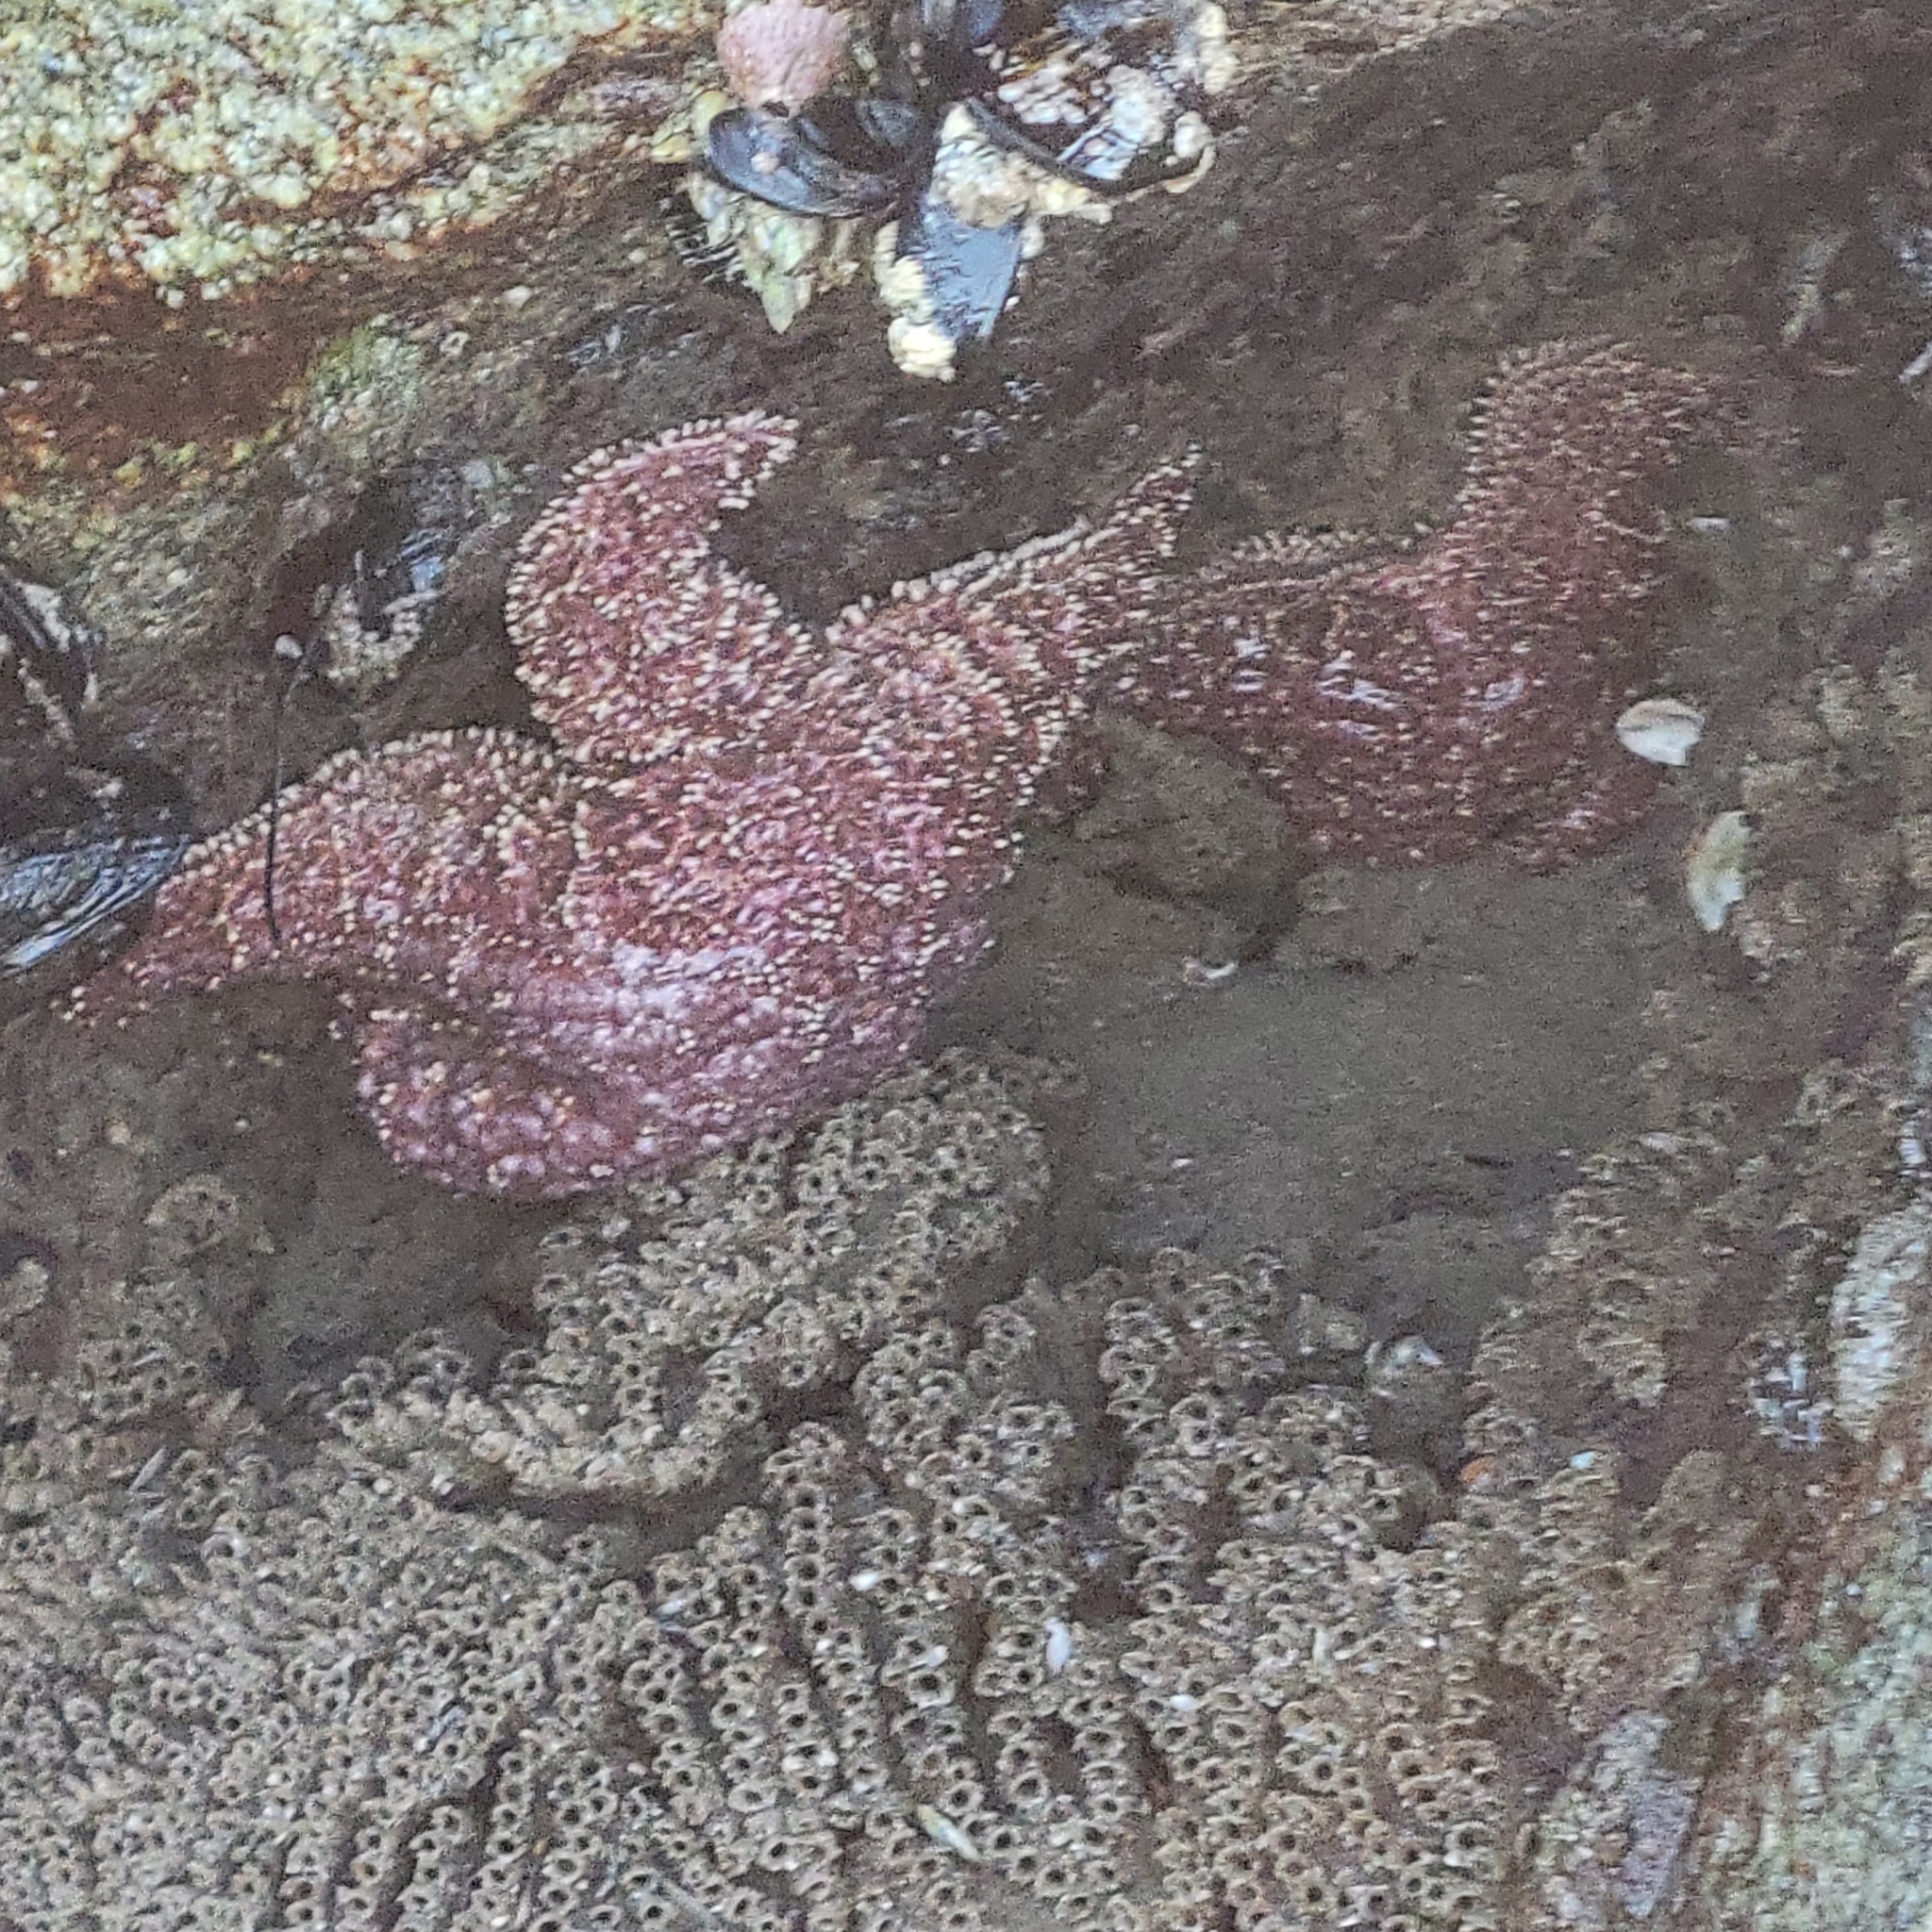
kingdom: Animalia
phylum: Echinodermata
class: Asteroidea
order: Forcipulatida
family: Asteriidae
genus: Pisaster
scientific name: Pisaster ochraceus
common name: Ochre stars
